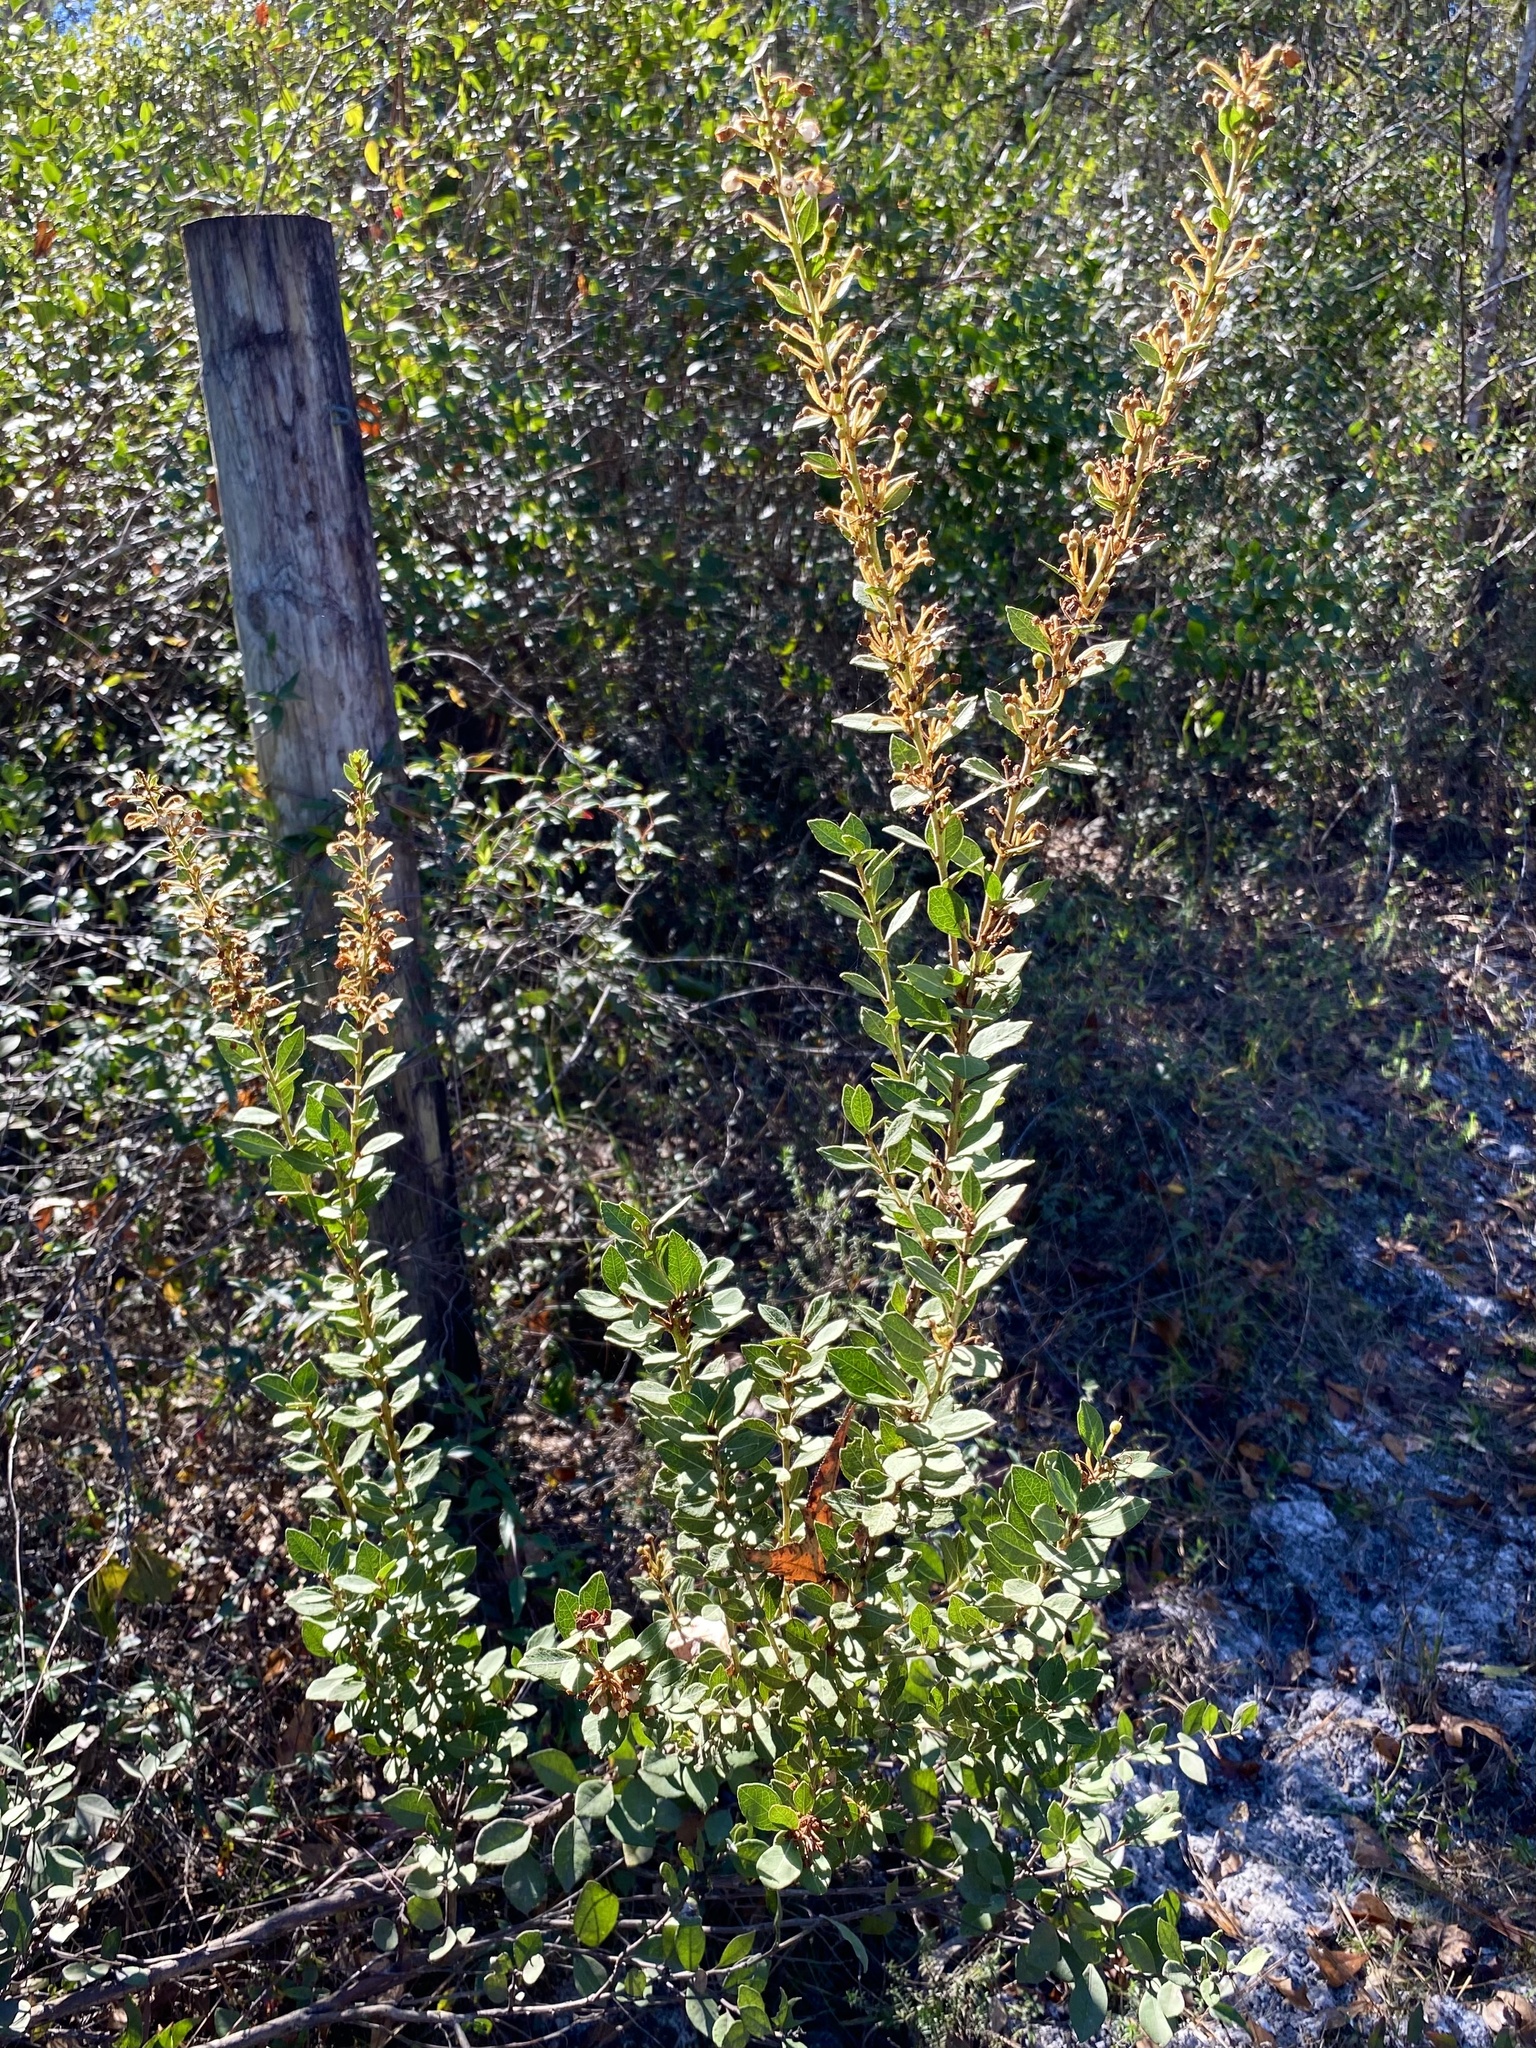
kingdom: Plantae
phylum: Tracheophyta
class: Magnoliopsida
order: Ericales
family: Ericaceae
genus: Lyonia
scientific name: Lyonia fruticosa
